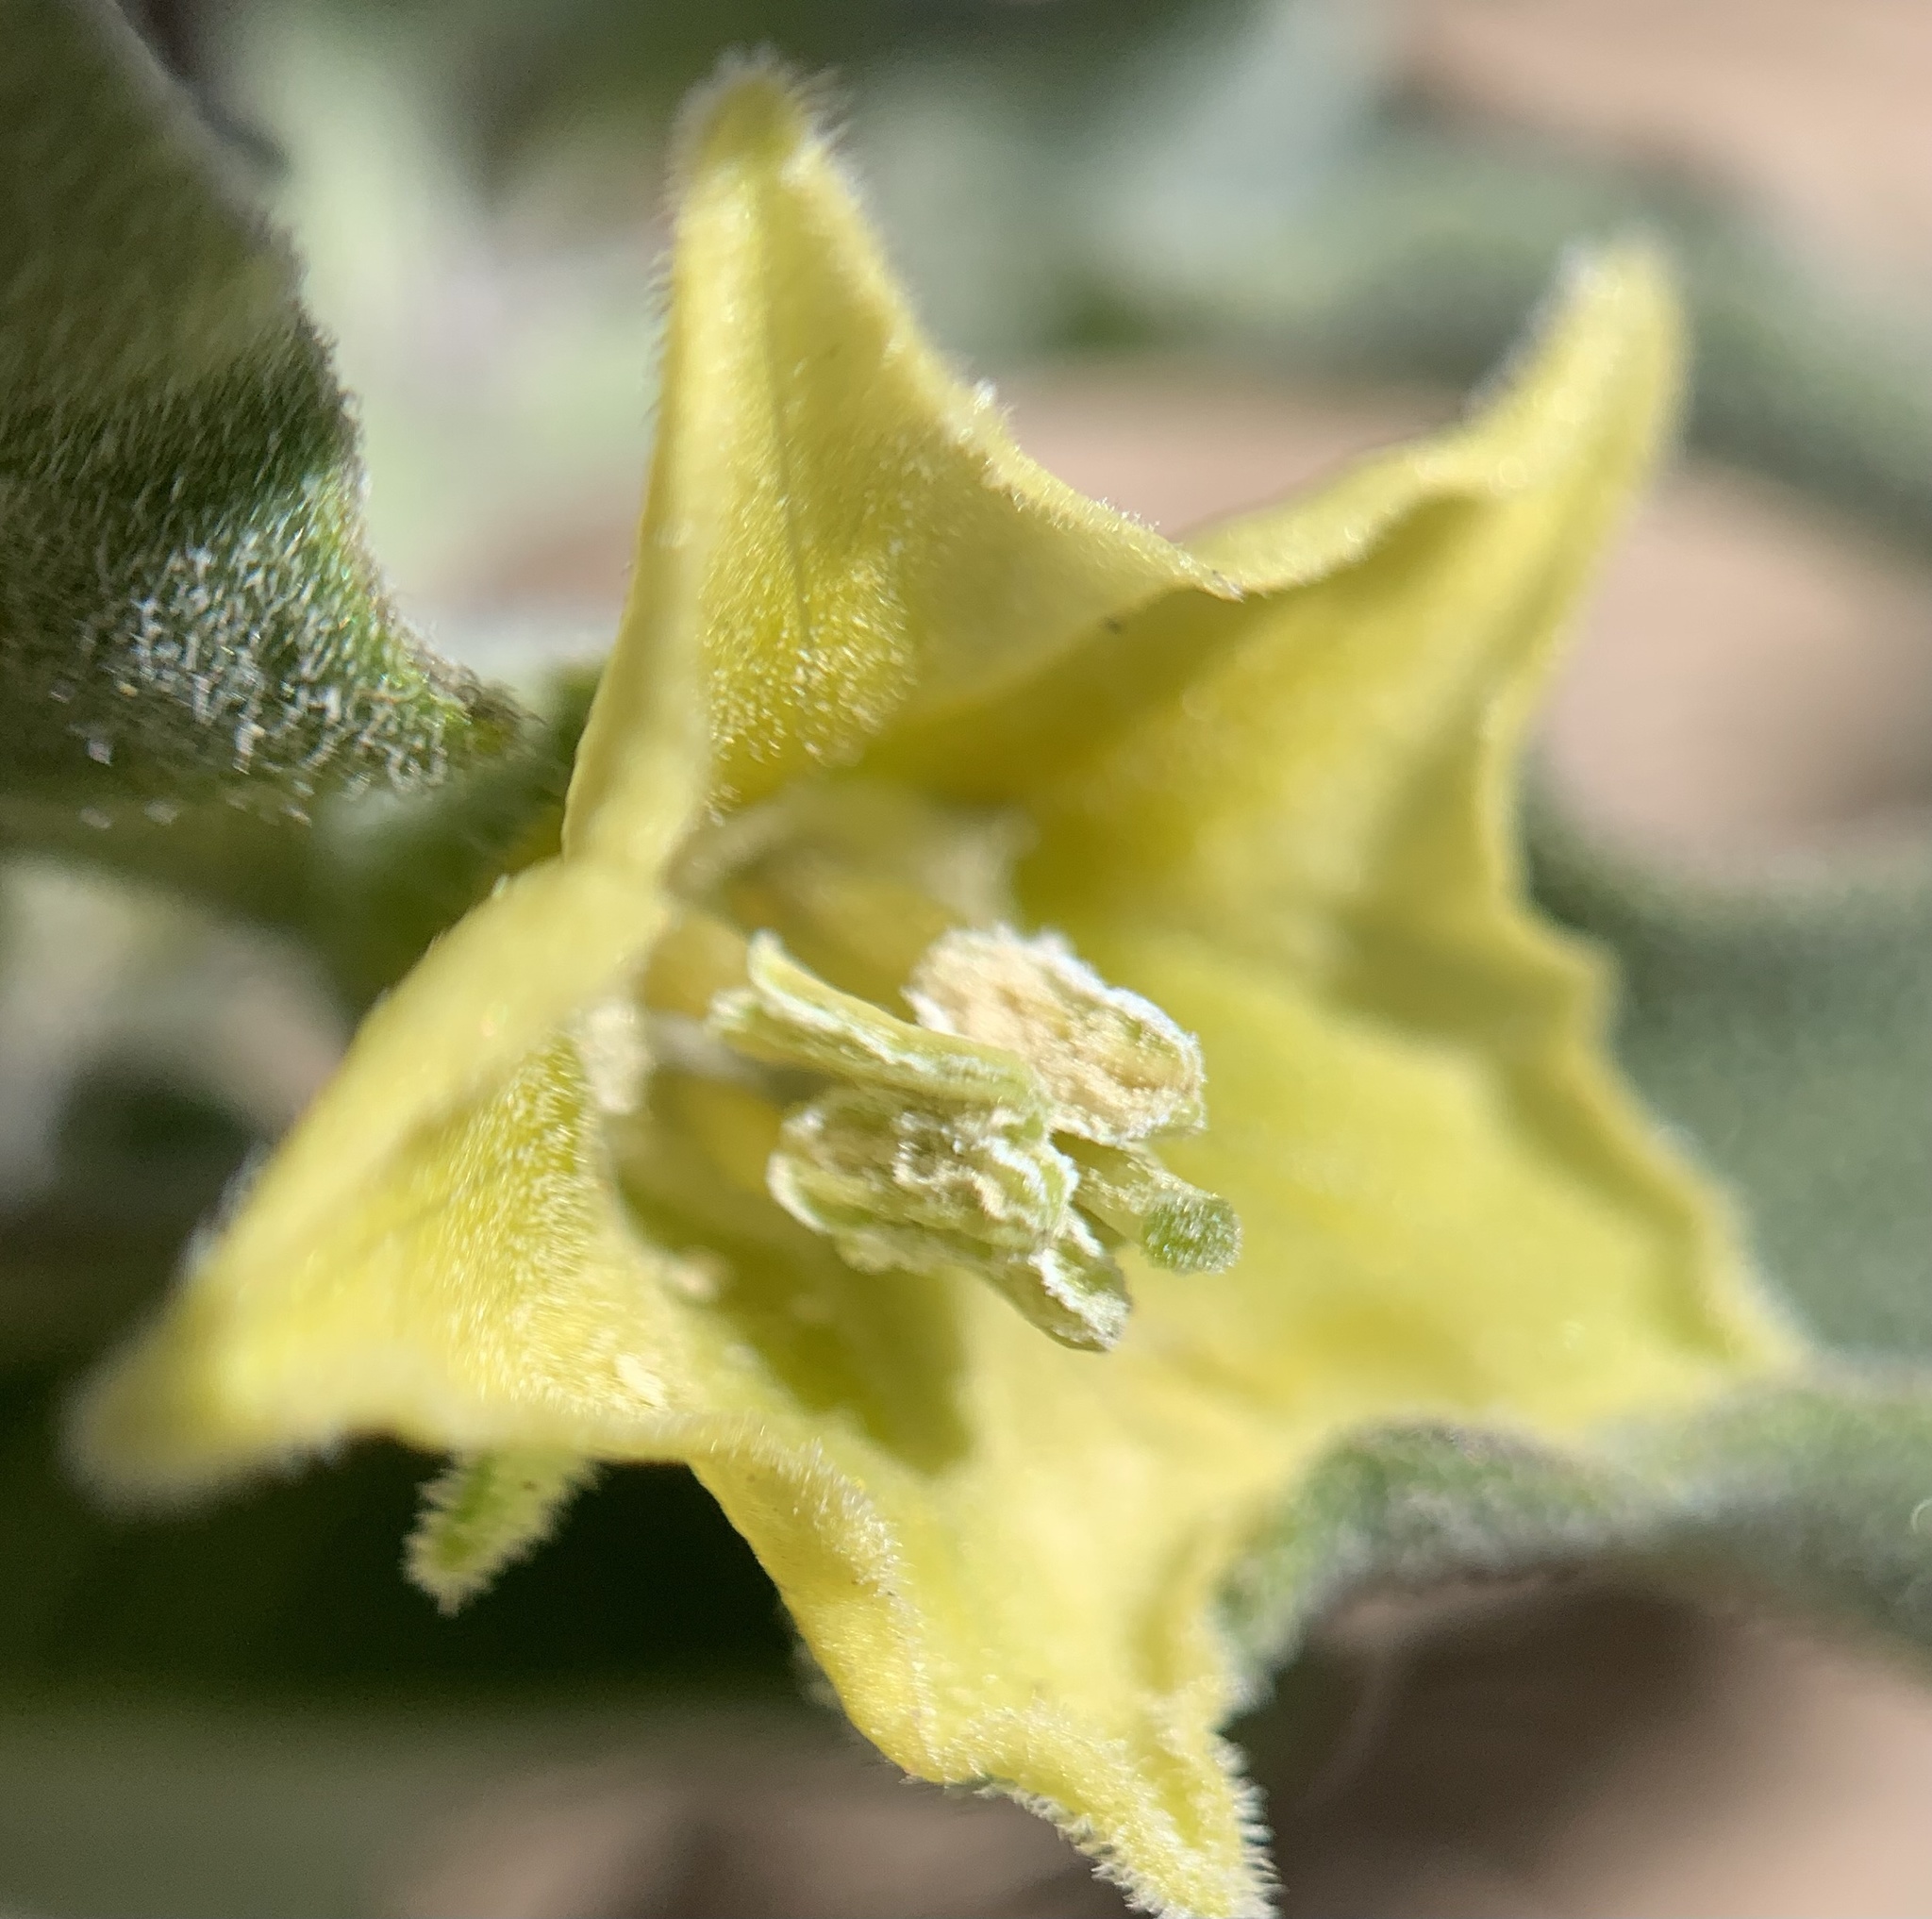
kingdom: Plantae
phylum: Tracheophyta
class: Magnoliopsida
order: Solanales
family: Solanaceae
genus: Physalis
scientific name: Physalis hederifolia
